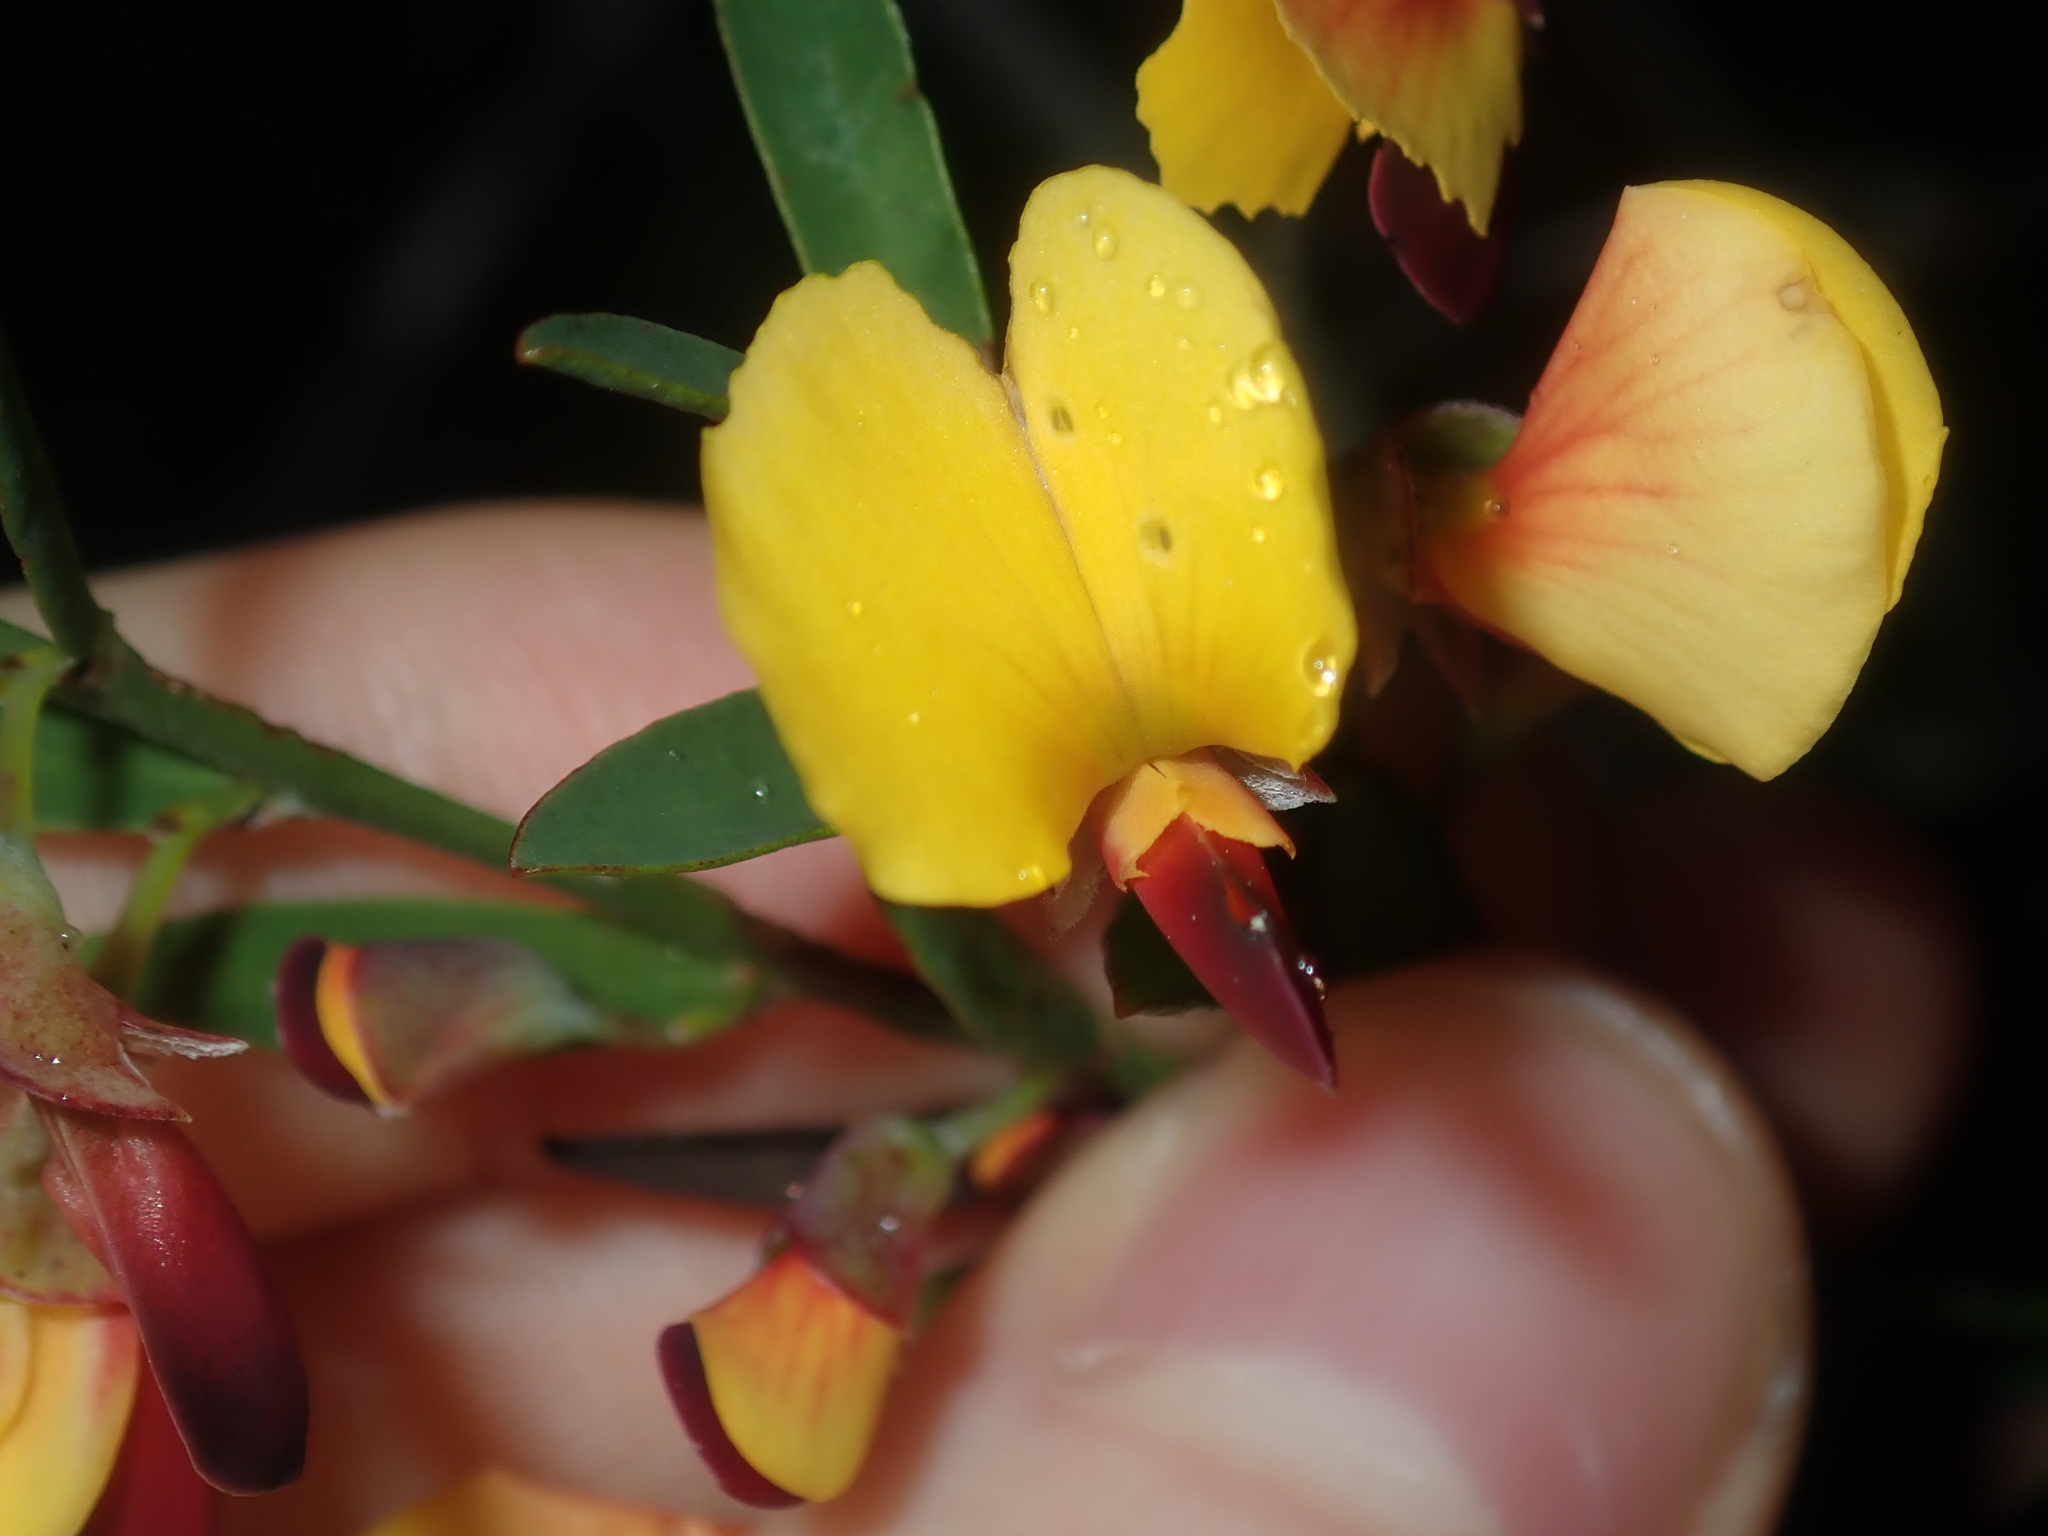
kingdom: Plantae
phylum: Tracheophyta
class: Magnoliopsida
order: Fabales
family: Fabaceae
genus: Bossiaea
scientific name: Bossiaea heterophylla
